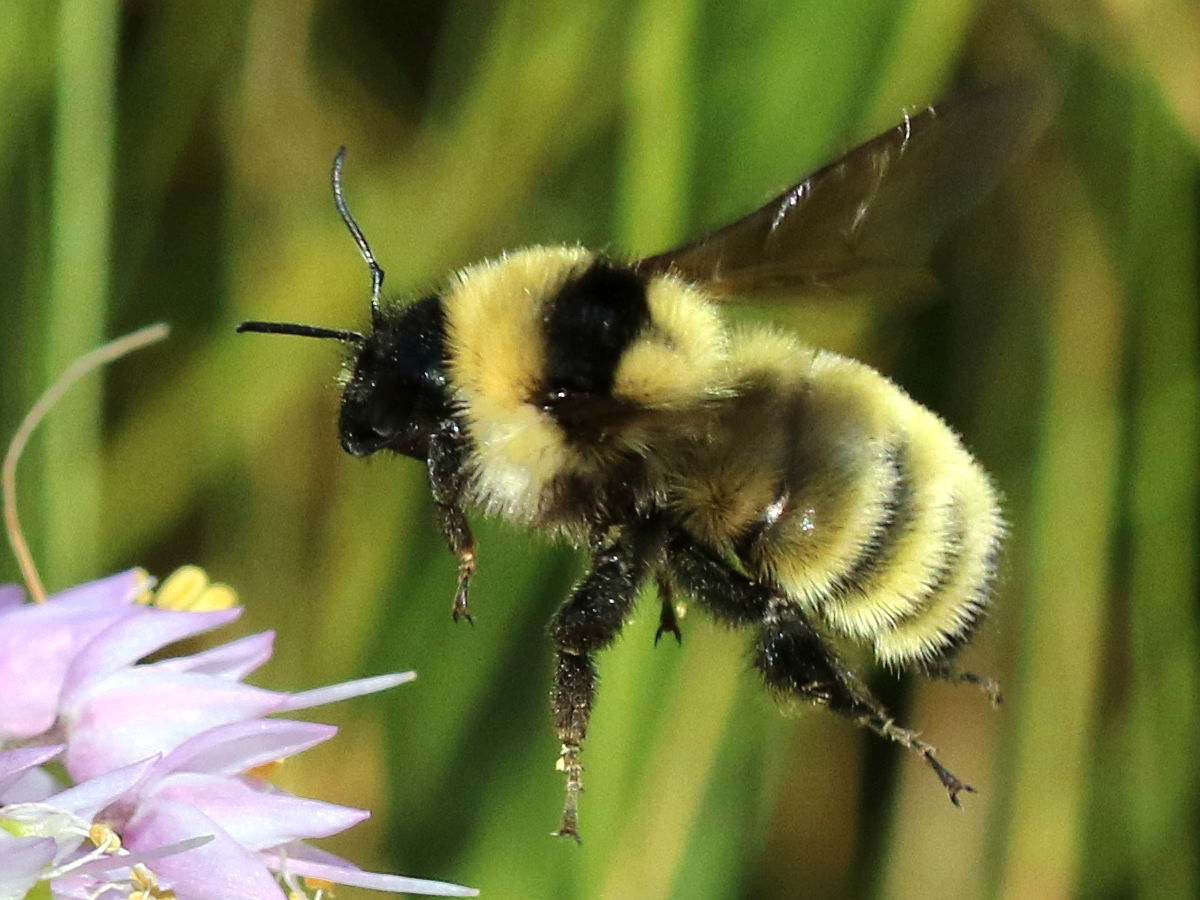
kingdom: Animalia
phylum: Arthropoda
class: Insecta
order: Hymenoptera
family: Apidae
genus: Bombus
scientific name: Bombus fervidus
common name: Yellow bumble bee
